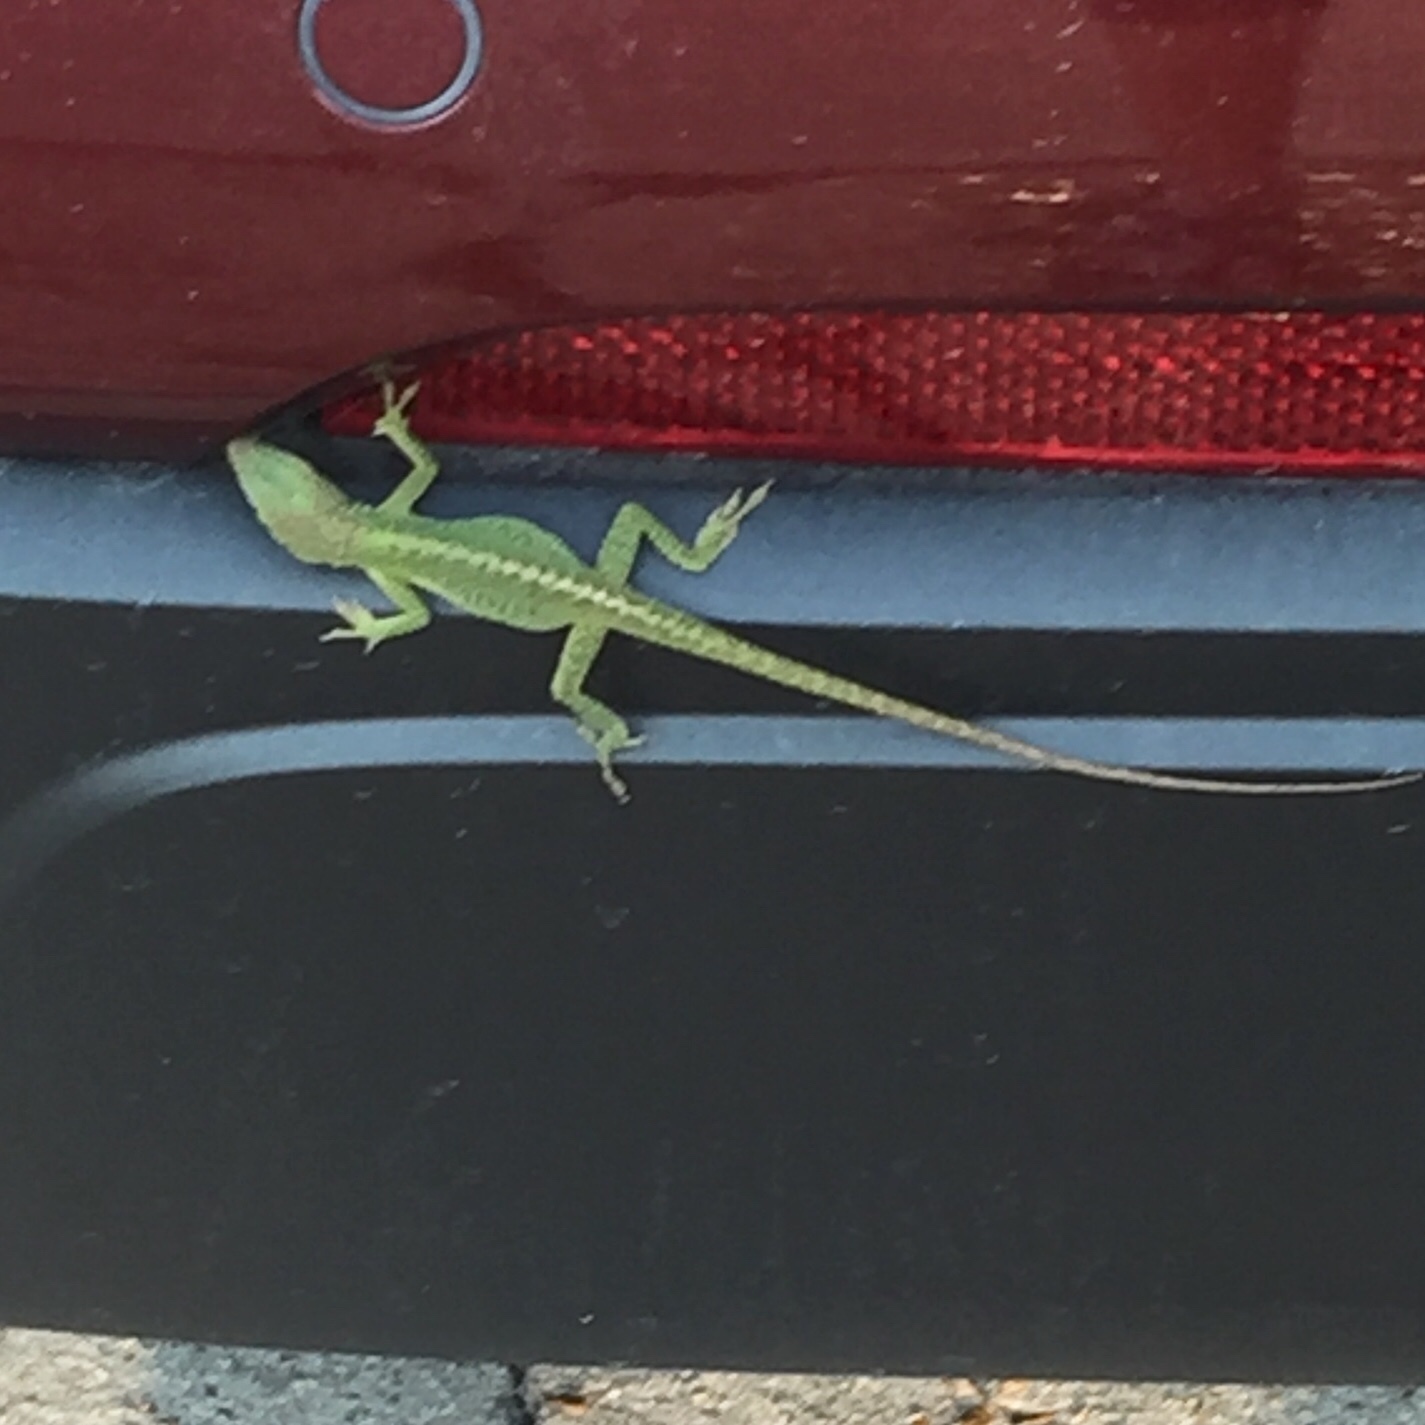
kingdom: Animalia
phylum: Chordata
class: Squamata
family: Dactyloidae
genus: Anolis
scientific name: Anolis carolinensis
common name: Green anole
